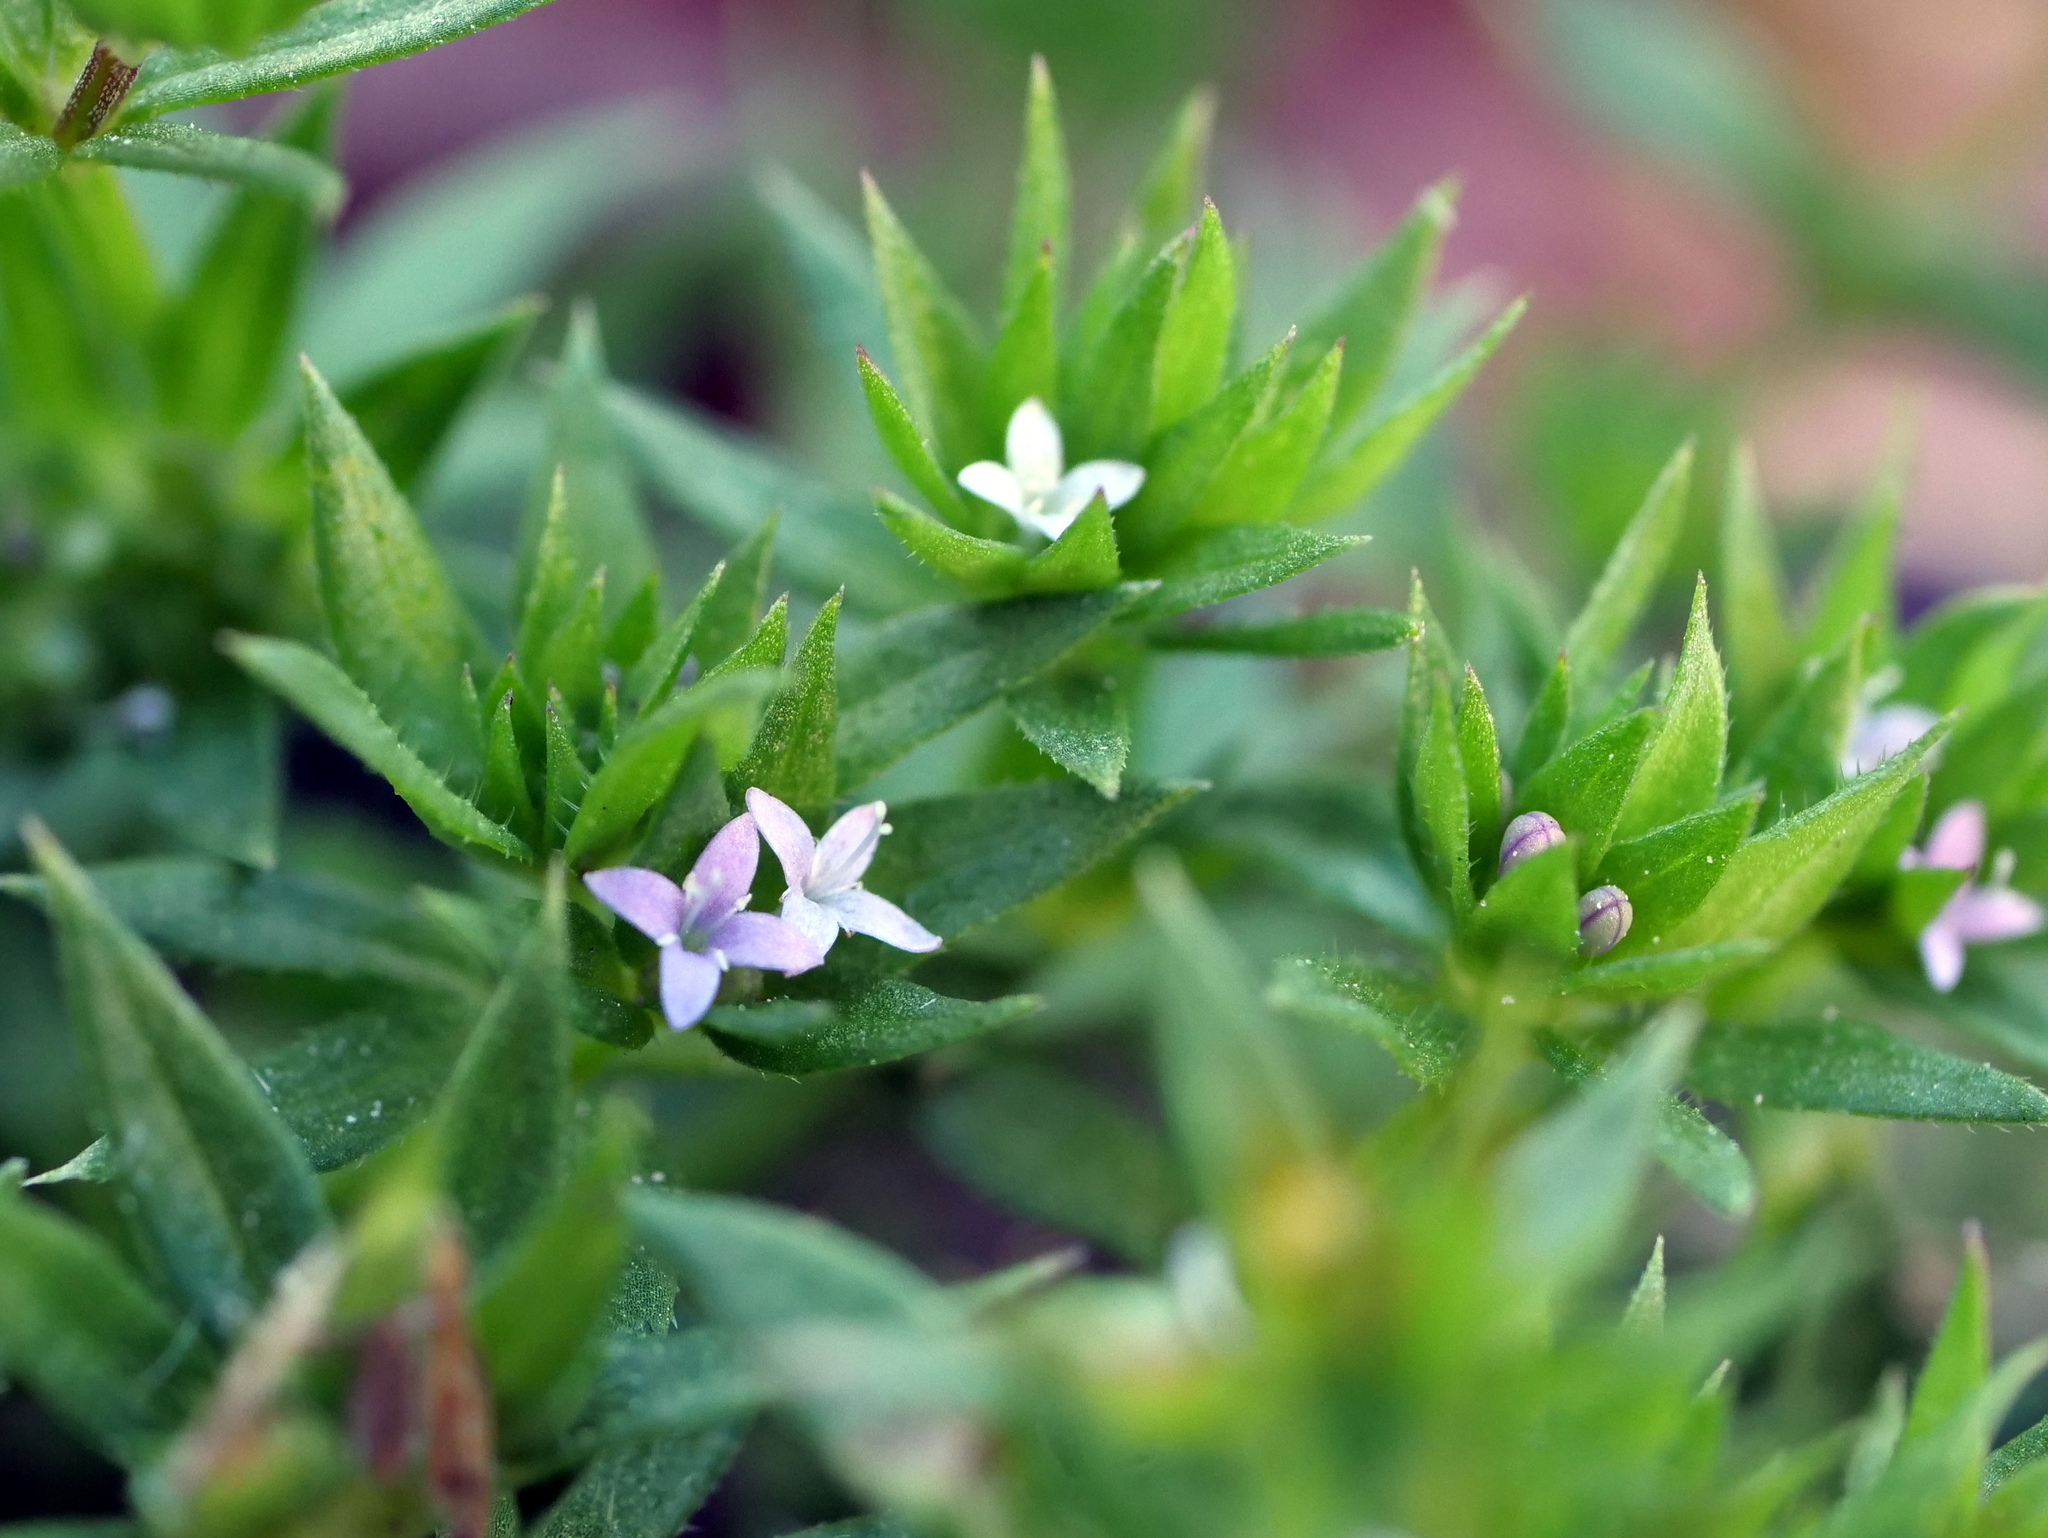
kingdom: Plantae
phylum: Tracheophyta
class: Magnoliopsida
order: Gentianales
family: Rubiaceae
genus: Sherardia
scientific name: Sherardia arvensis
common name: Field madder
